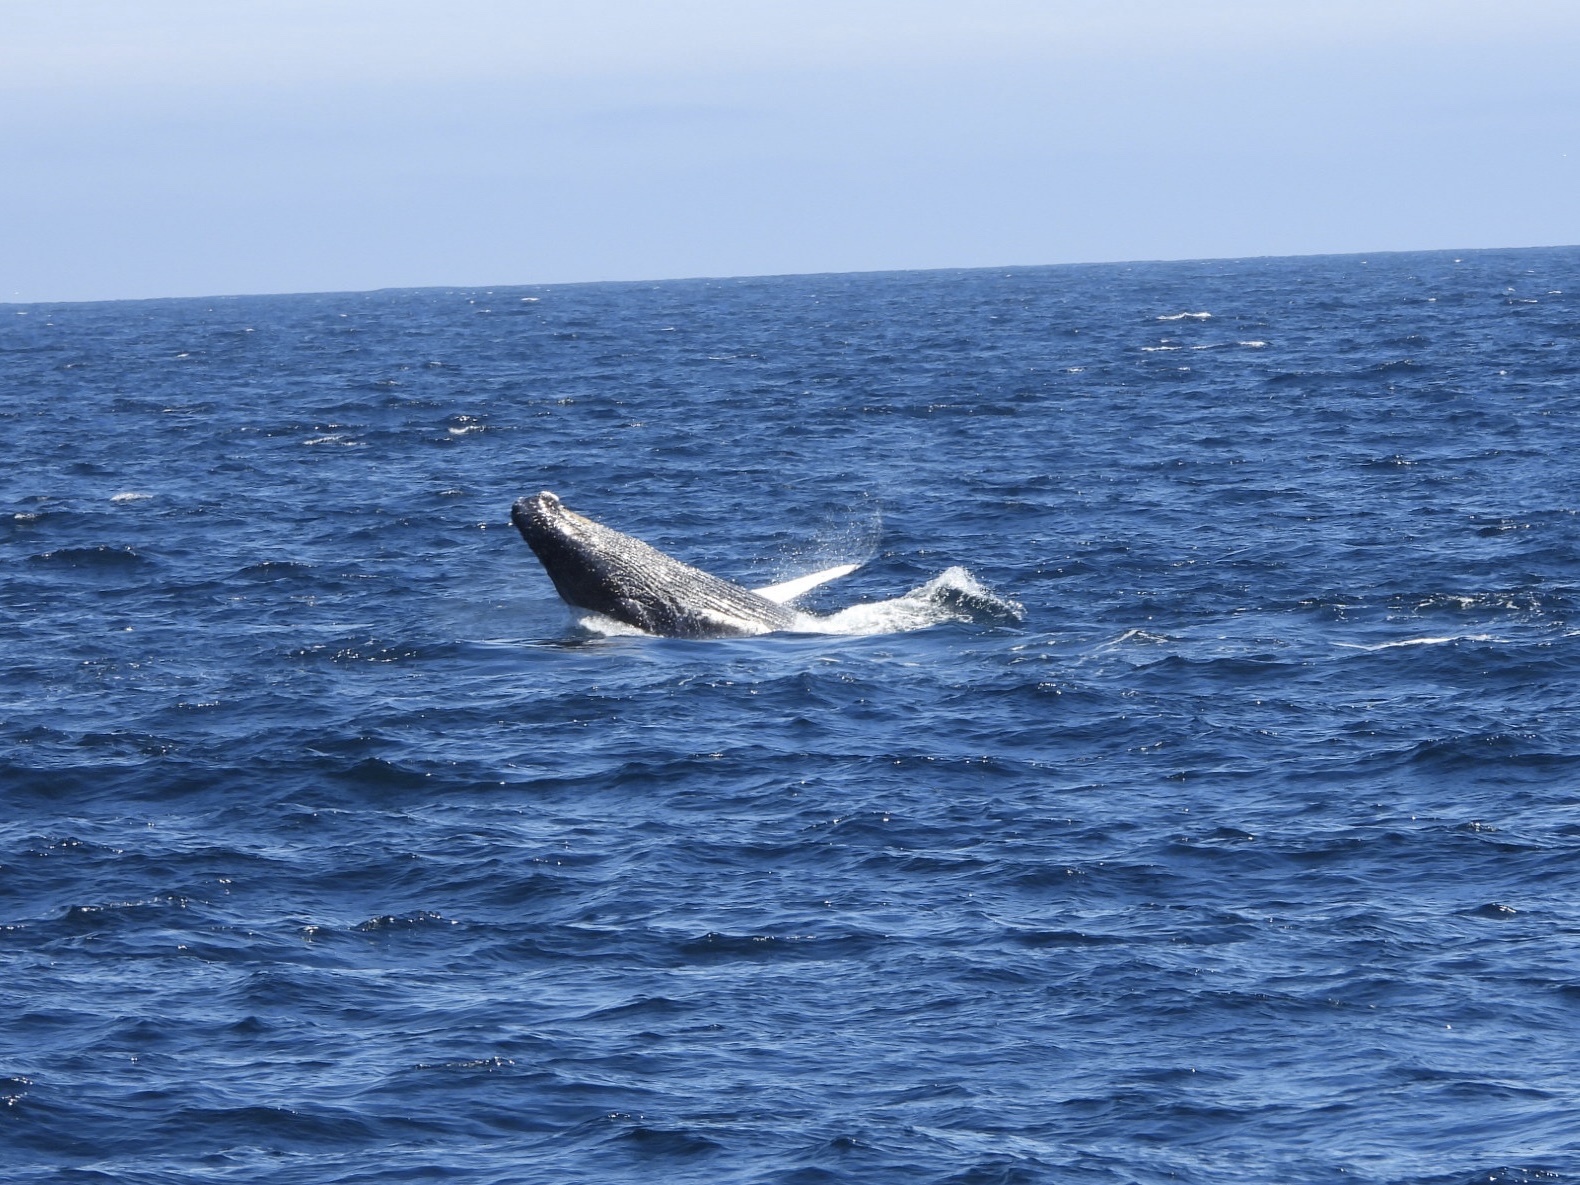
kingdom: Animalia
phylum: Chordata
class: Mammalia
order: Cetacea
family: Balaenopteridae
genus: Megaptera
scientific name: Megaptera novaeangliae
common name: Humpback whale
